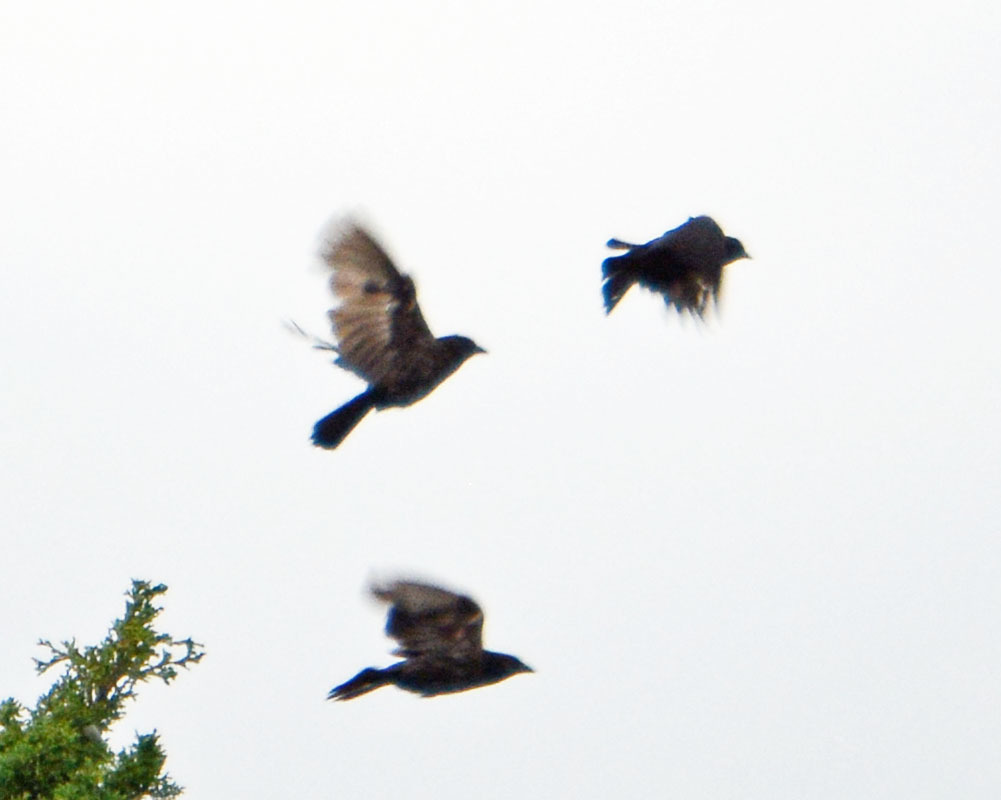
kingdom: Animalia
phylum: Chordata
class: Aves
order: Passeriformes
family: Icteridae
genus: Molothrus
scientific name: Molothrus aeneus
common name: Bronzed cowbird
